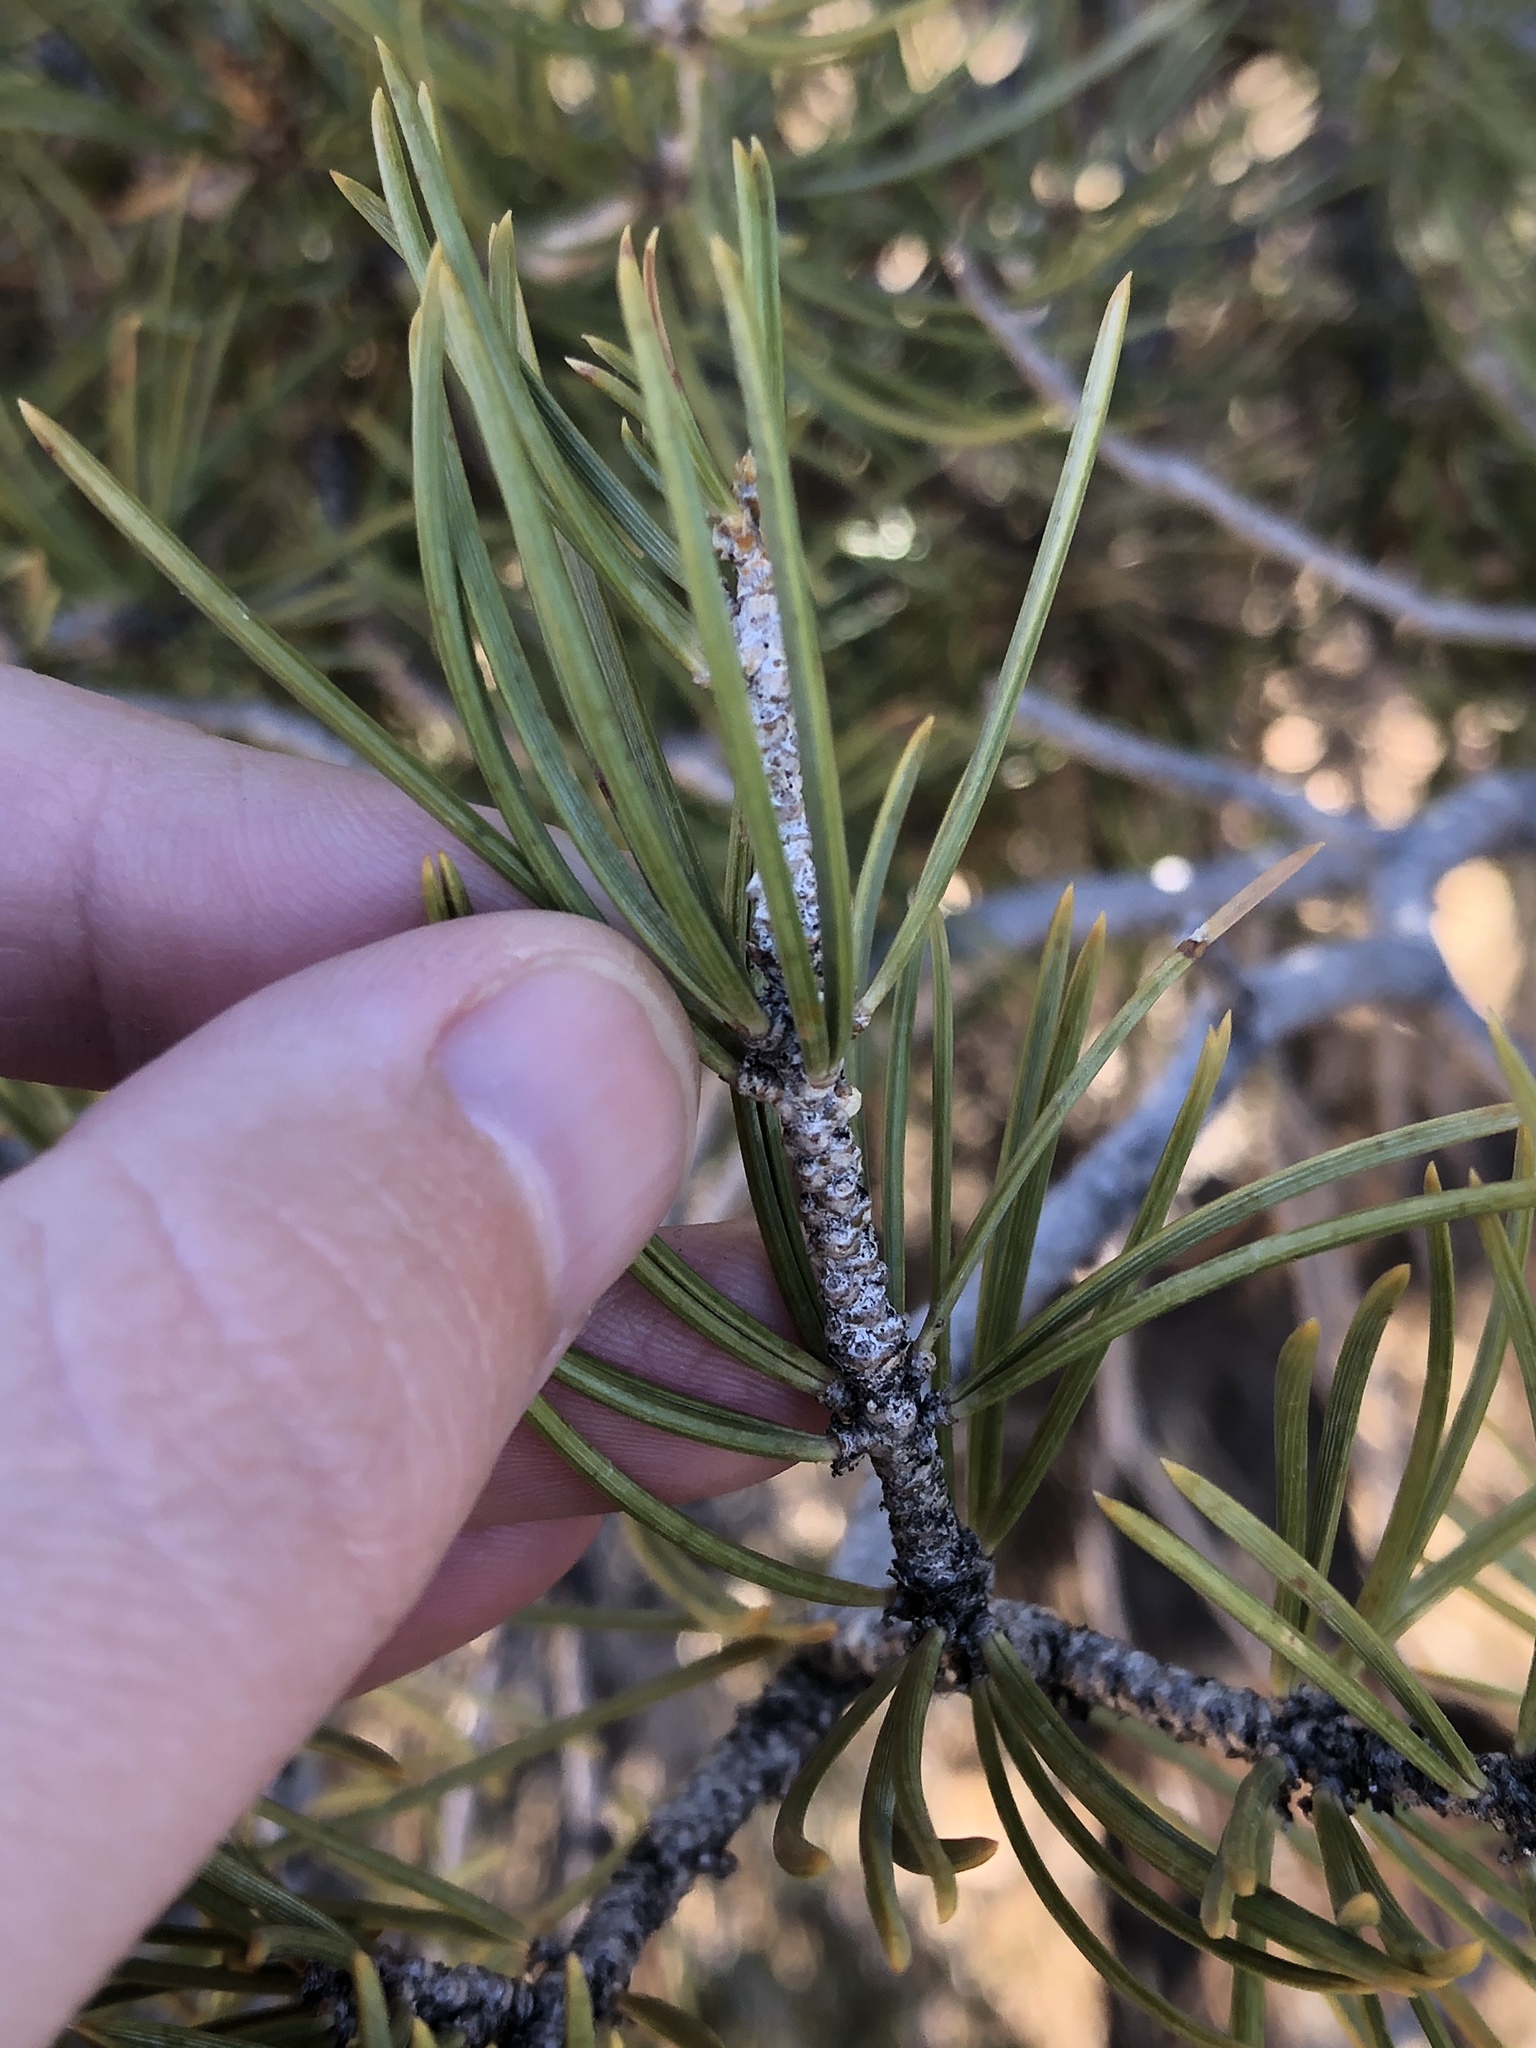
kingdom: Plantae
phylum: Tracheophyta
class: Pinopsida
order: Pinales
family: Pinaceae
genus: Pinus
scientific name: Pinus edulis
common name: Colorado pinyon
